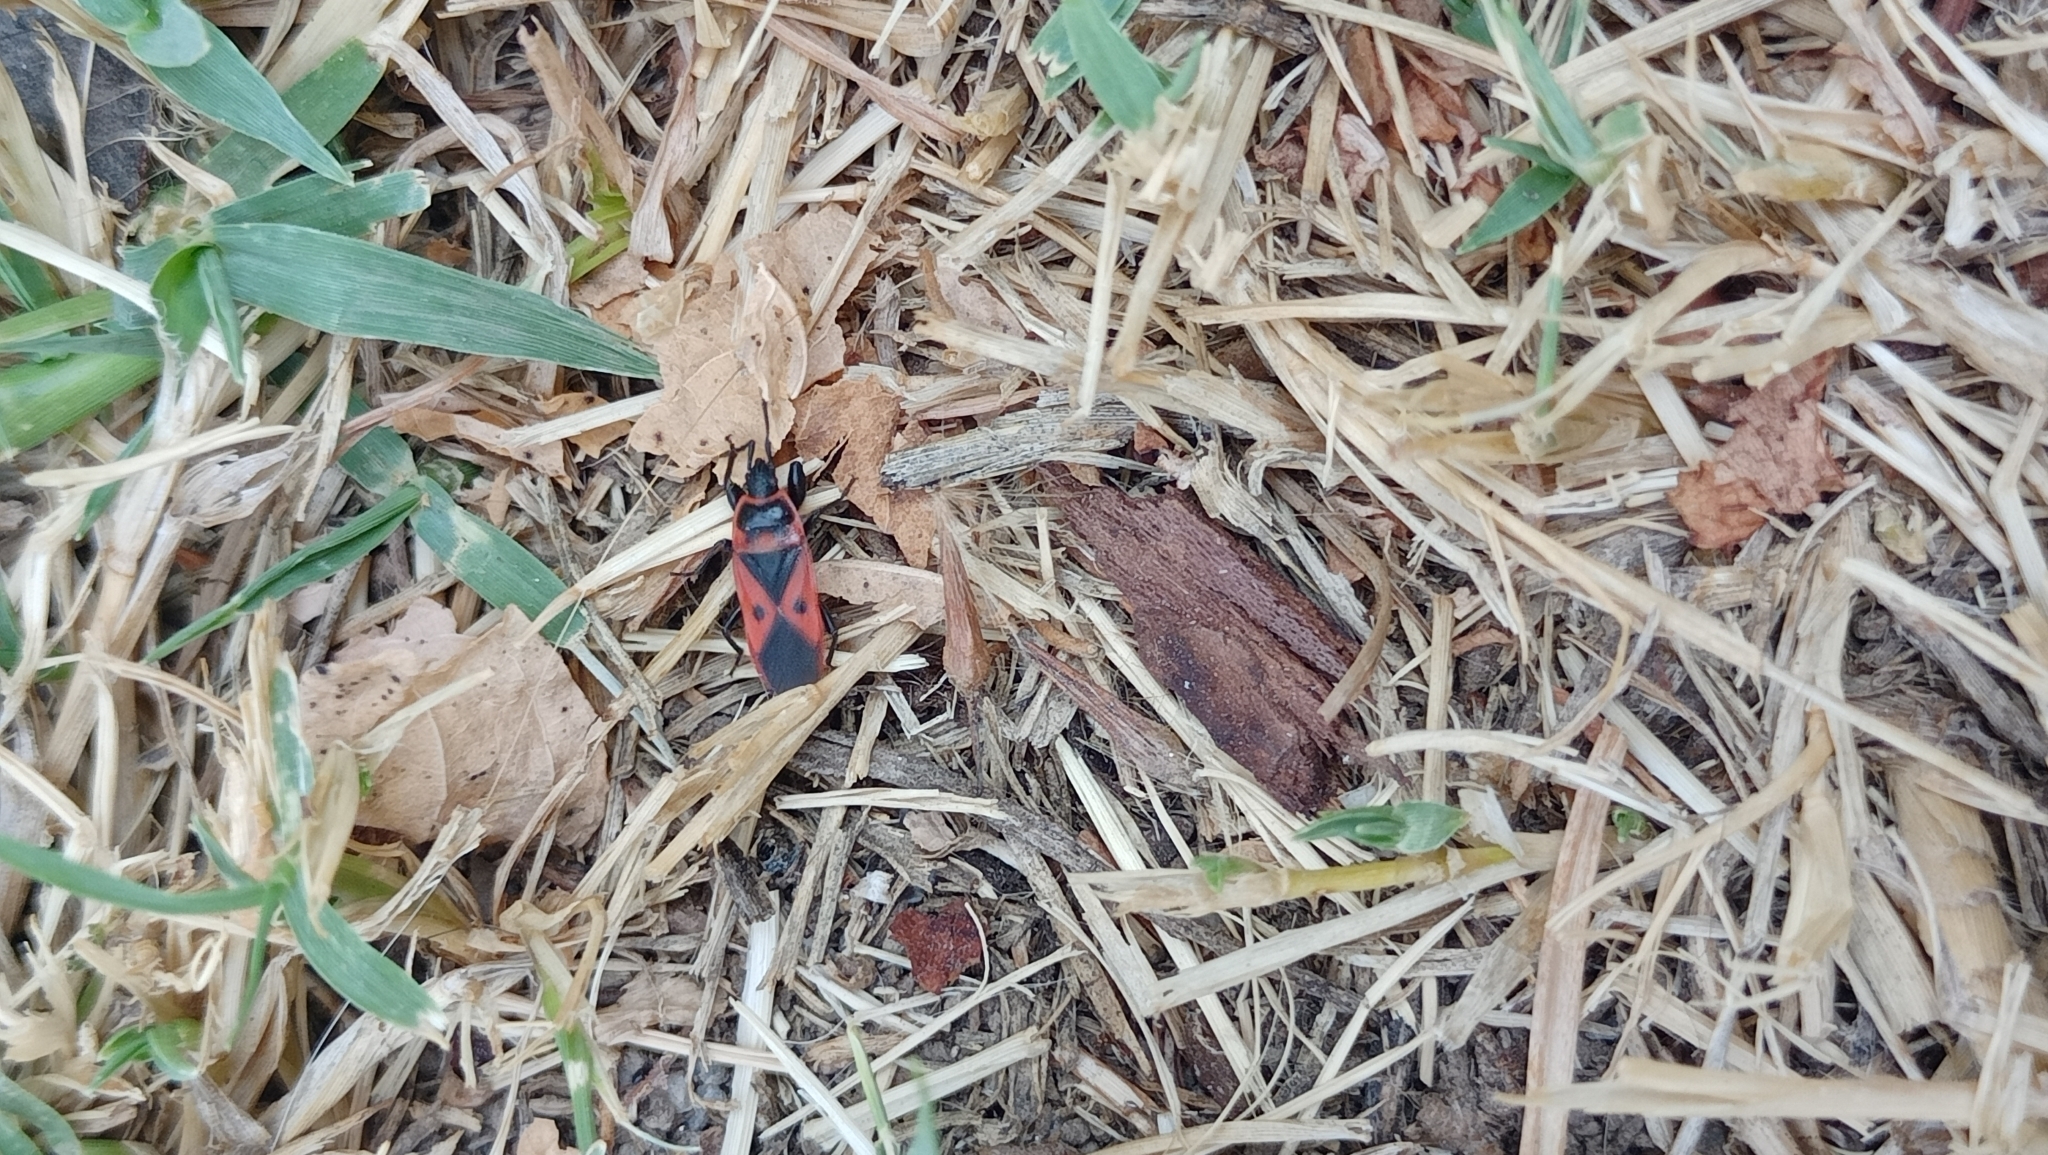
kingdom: Animalia
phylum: Arthropoda
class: Insecta
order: Hemiptera
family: Pyrrhocoridae
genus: Scantius
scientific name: Scantius aegyptius
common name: Red bug
